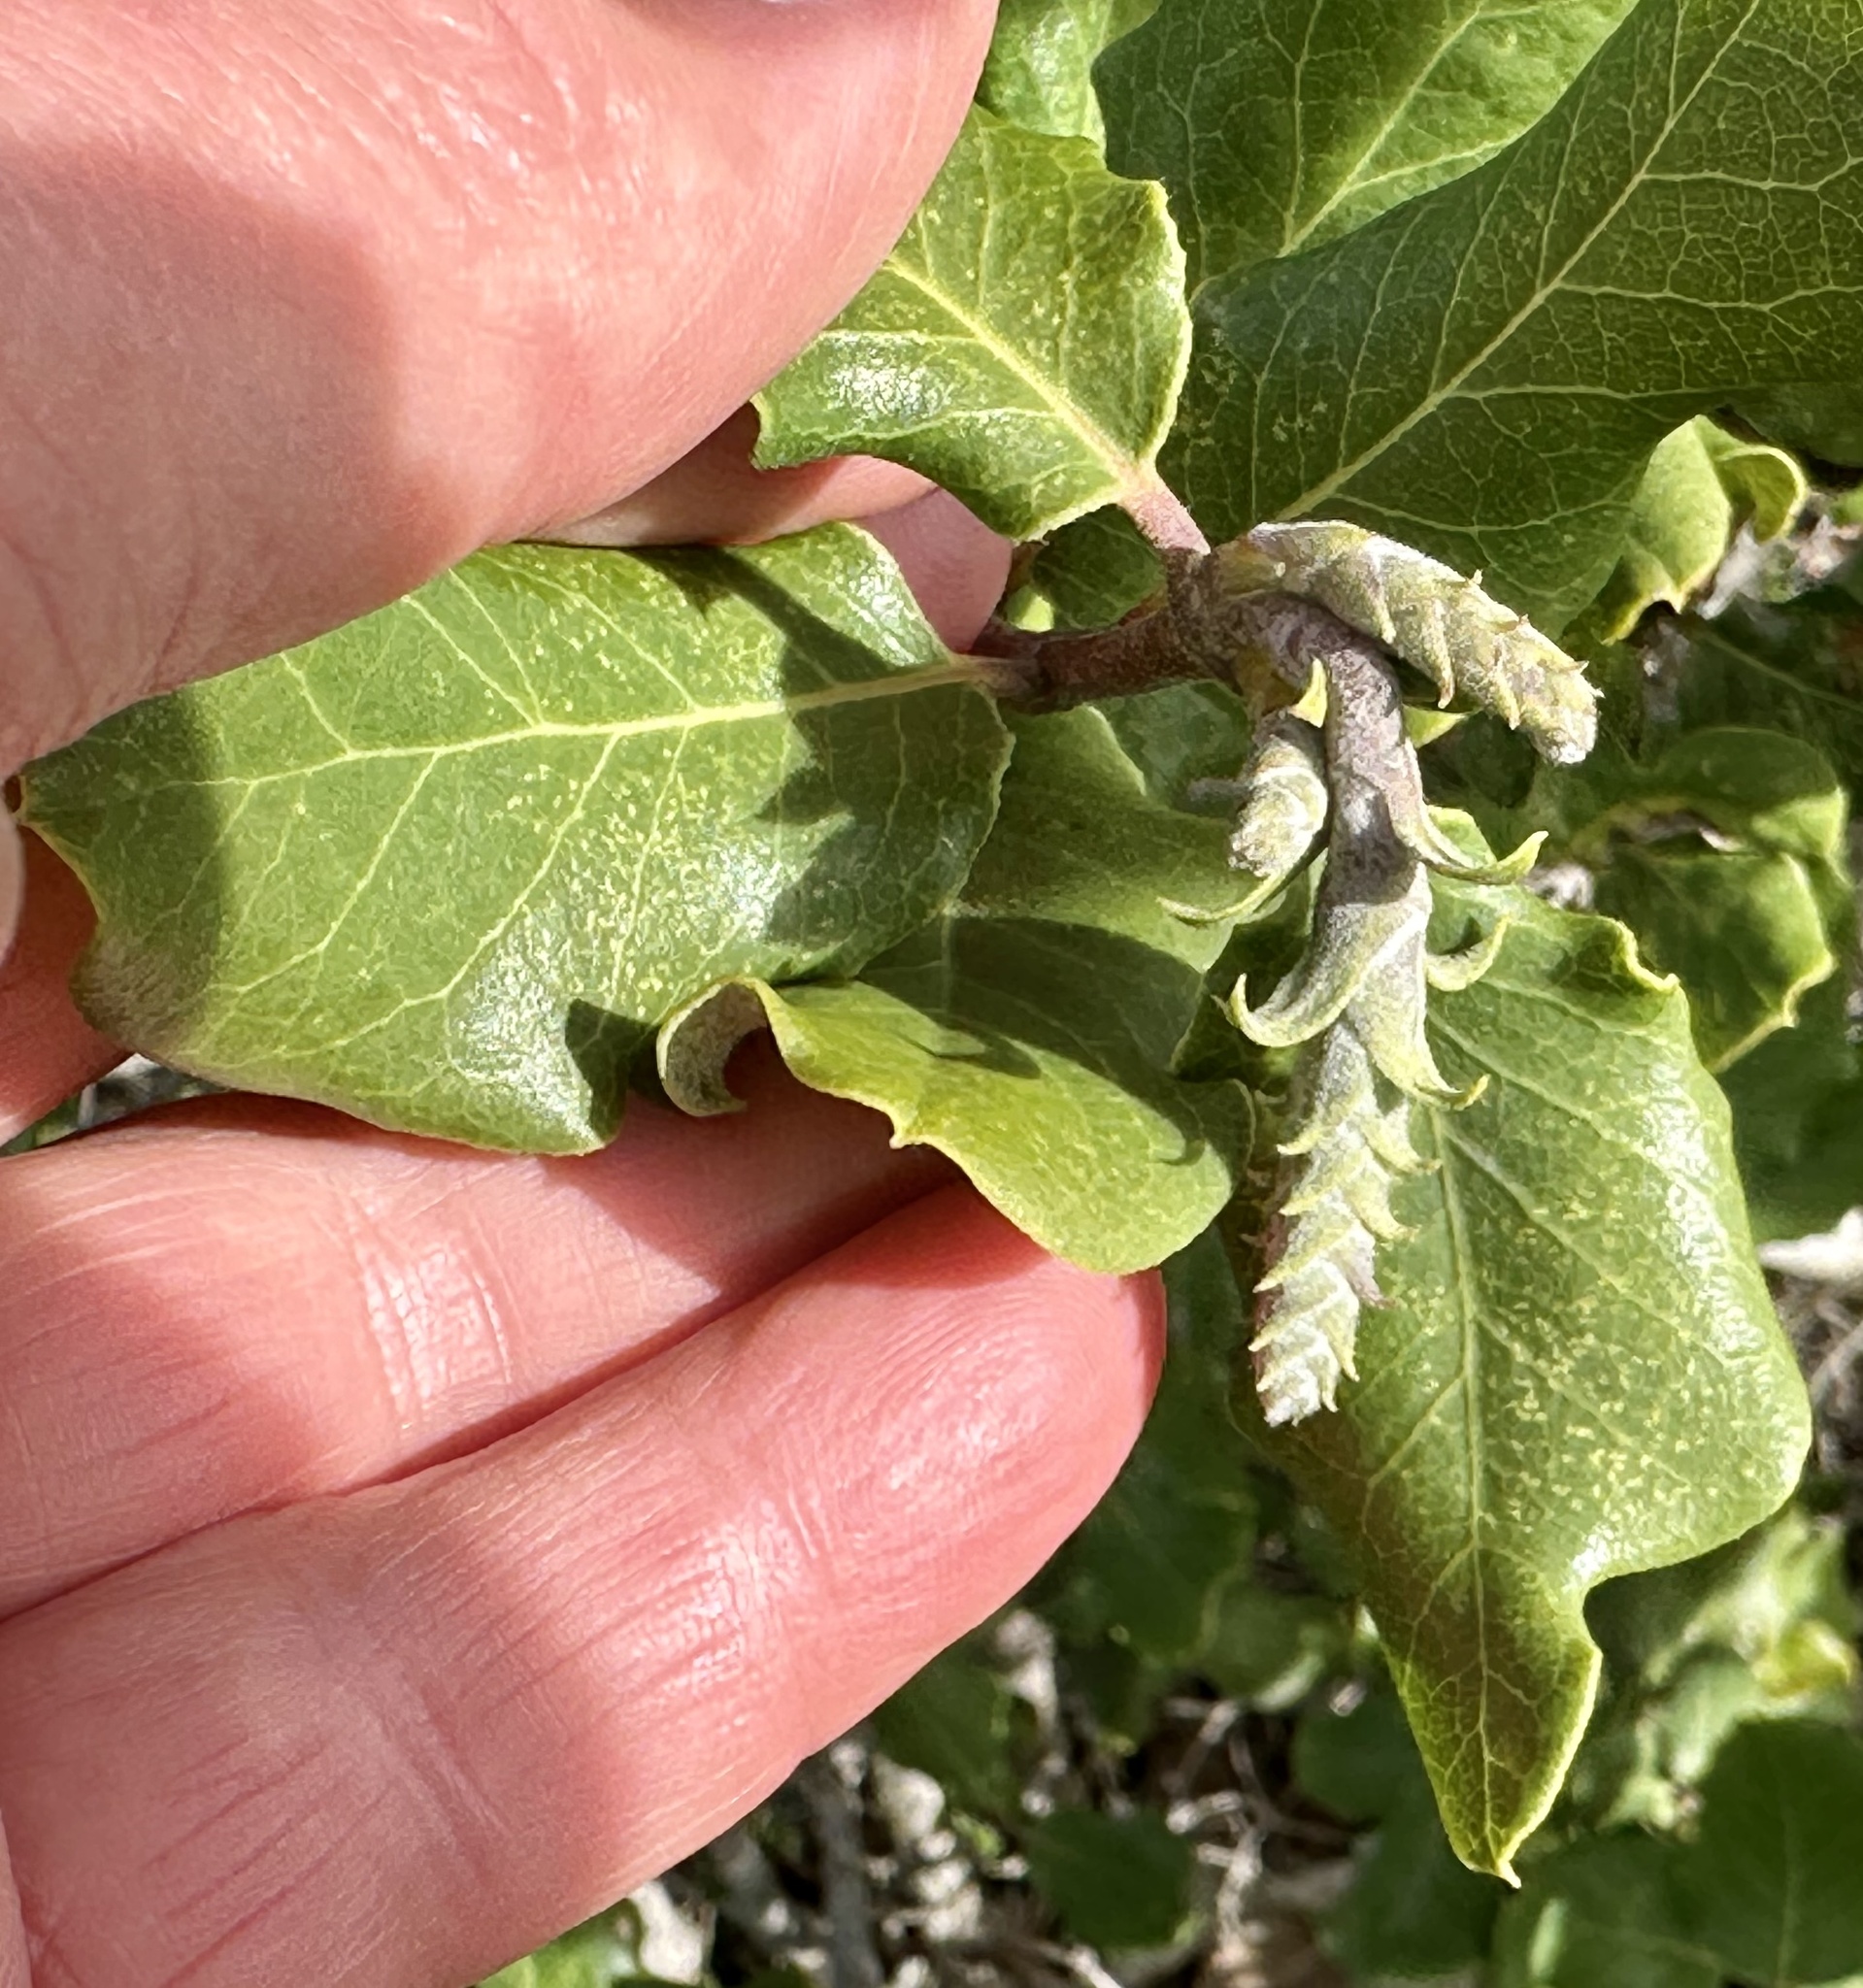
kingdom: Plantae
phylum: Tracheophyta
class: Magnoliopsida
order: Garryales
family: Garryaceae
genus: Garrya
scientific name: Garrya elliptica
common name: Silk-tassel
